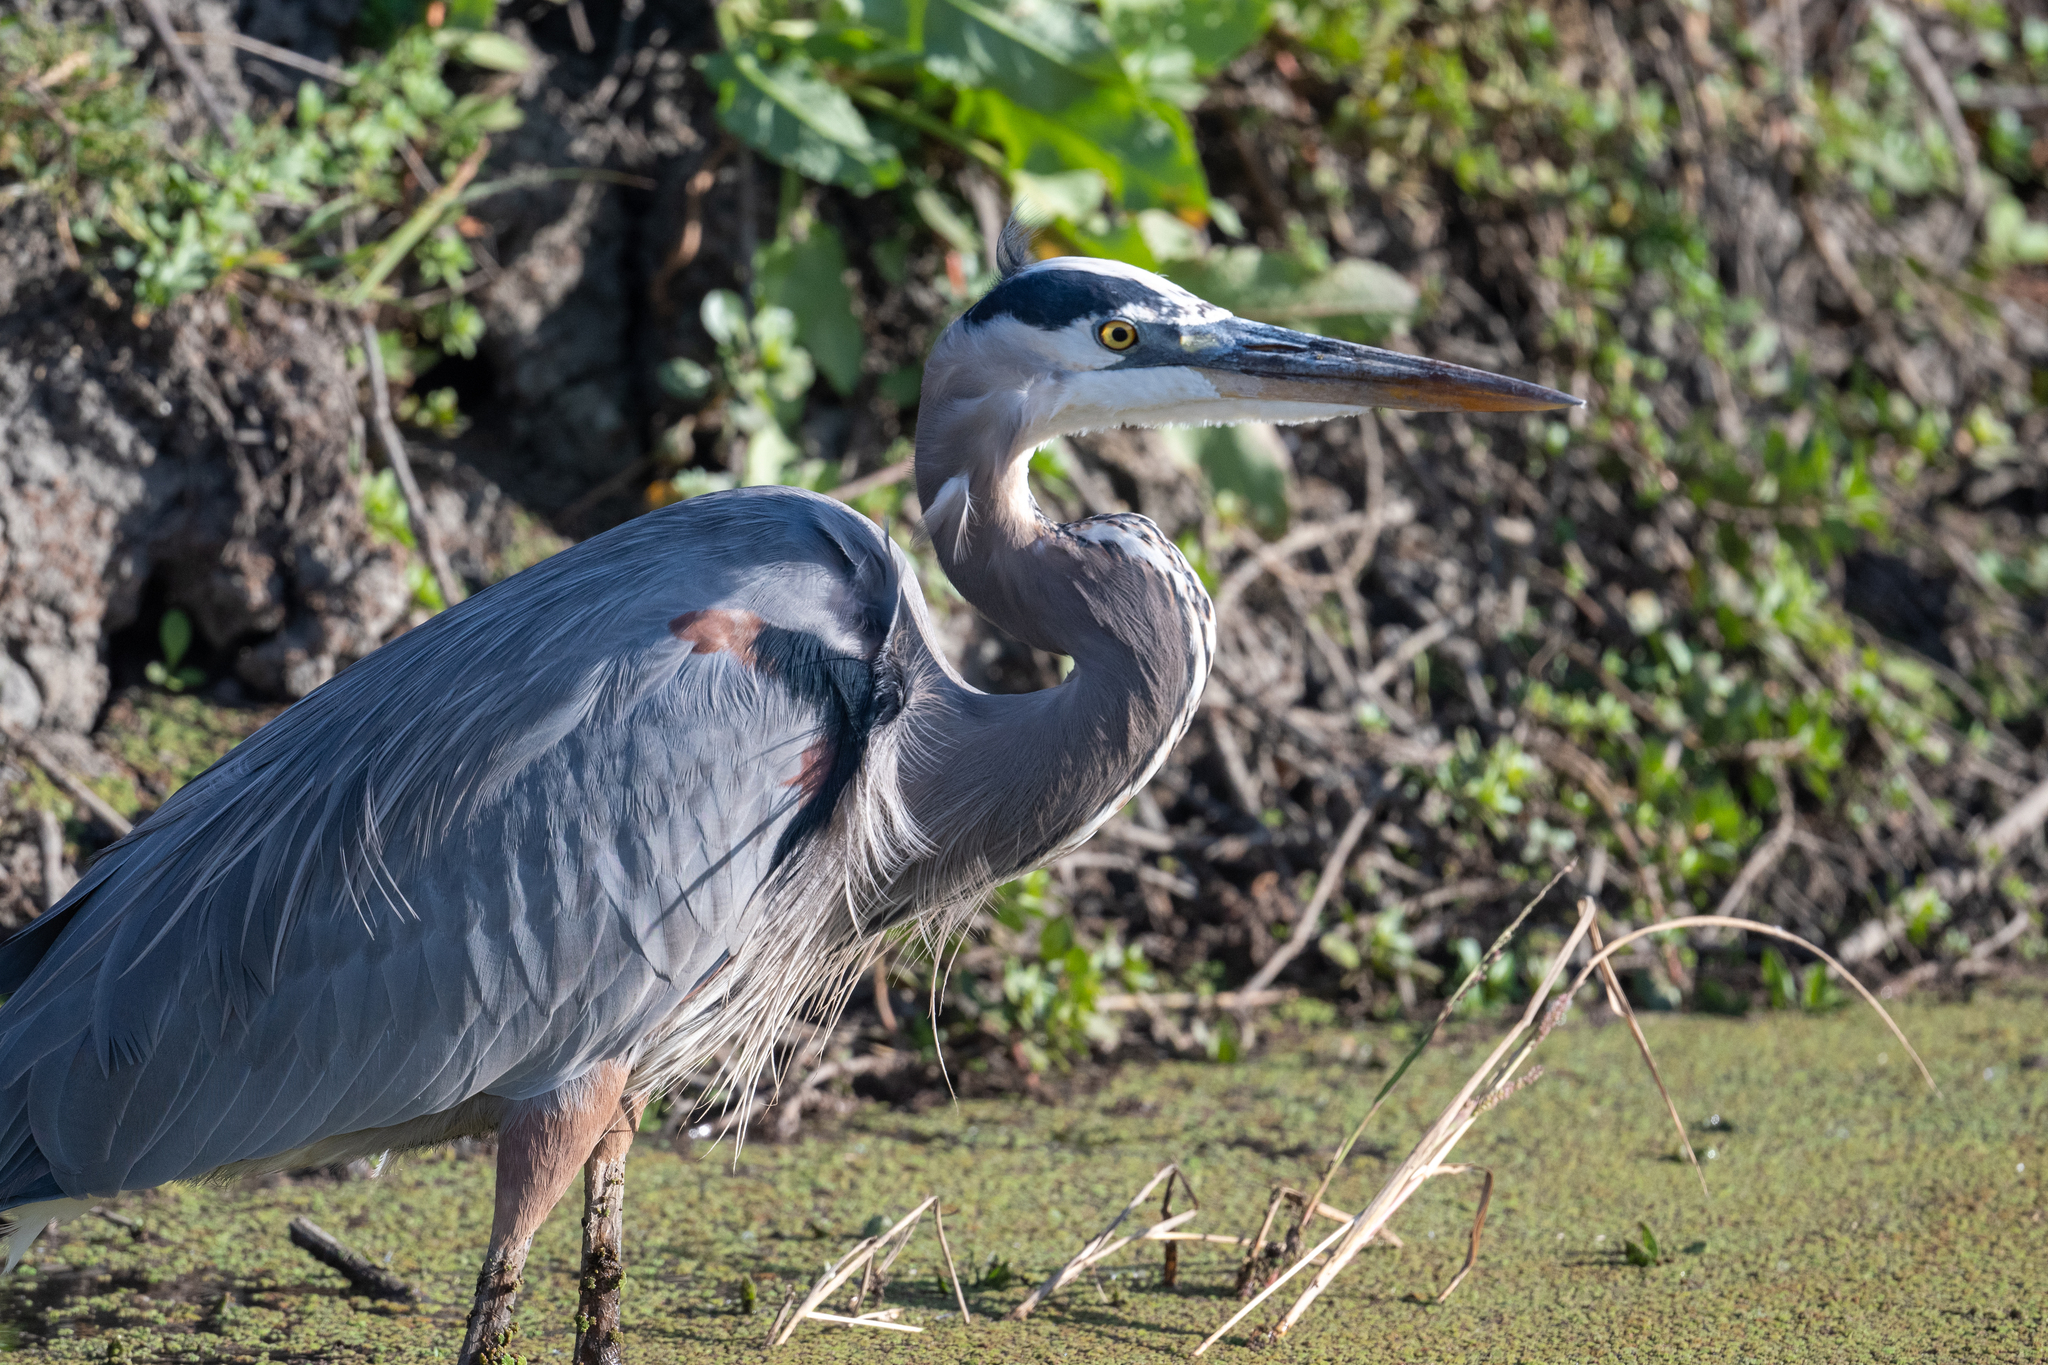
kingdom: Animalia
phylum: Chordata
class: Aves
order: Pelecaniformes
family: Ardeidae
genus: Ardea
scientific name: Ardea herodias
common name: Great blue heron
